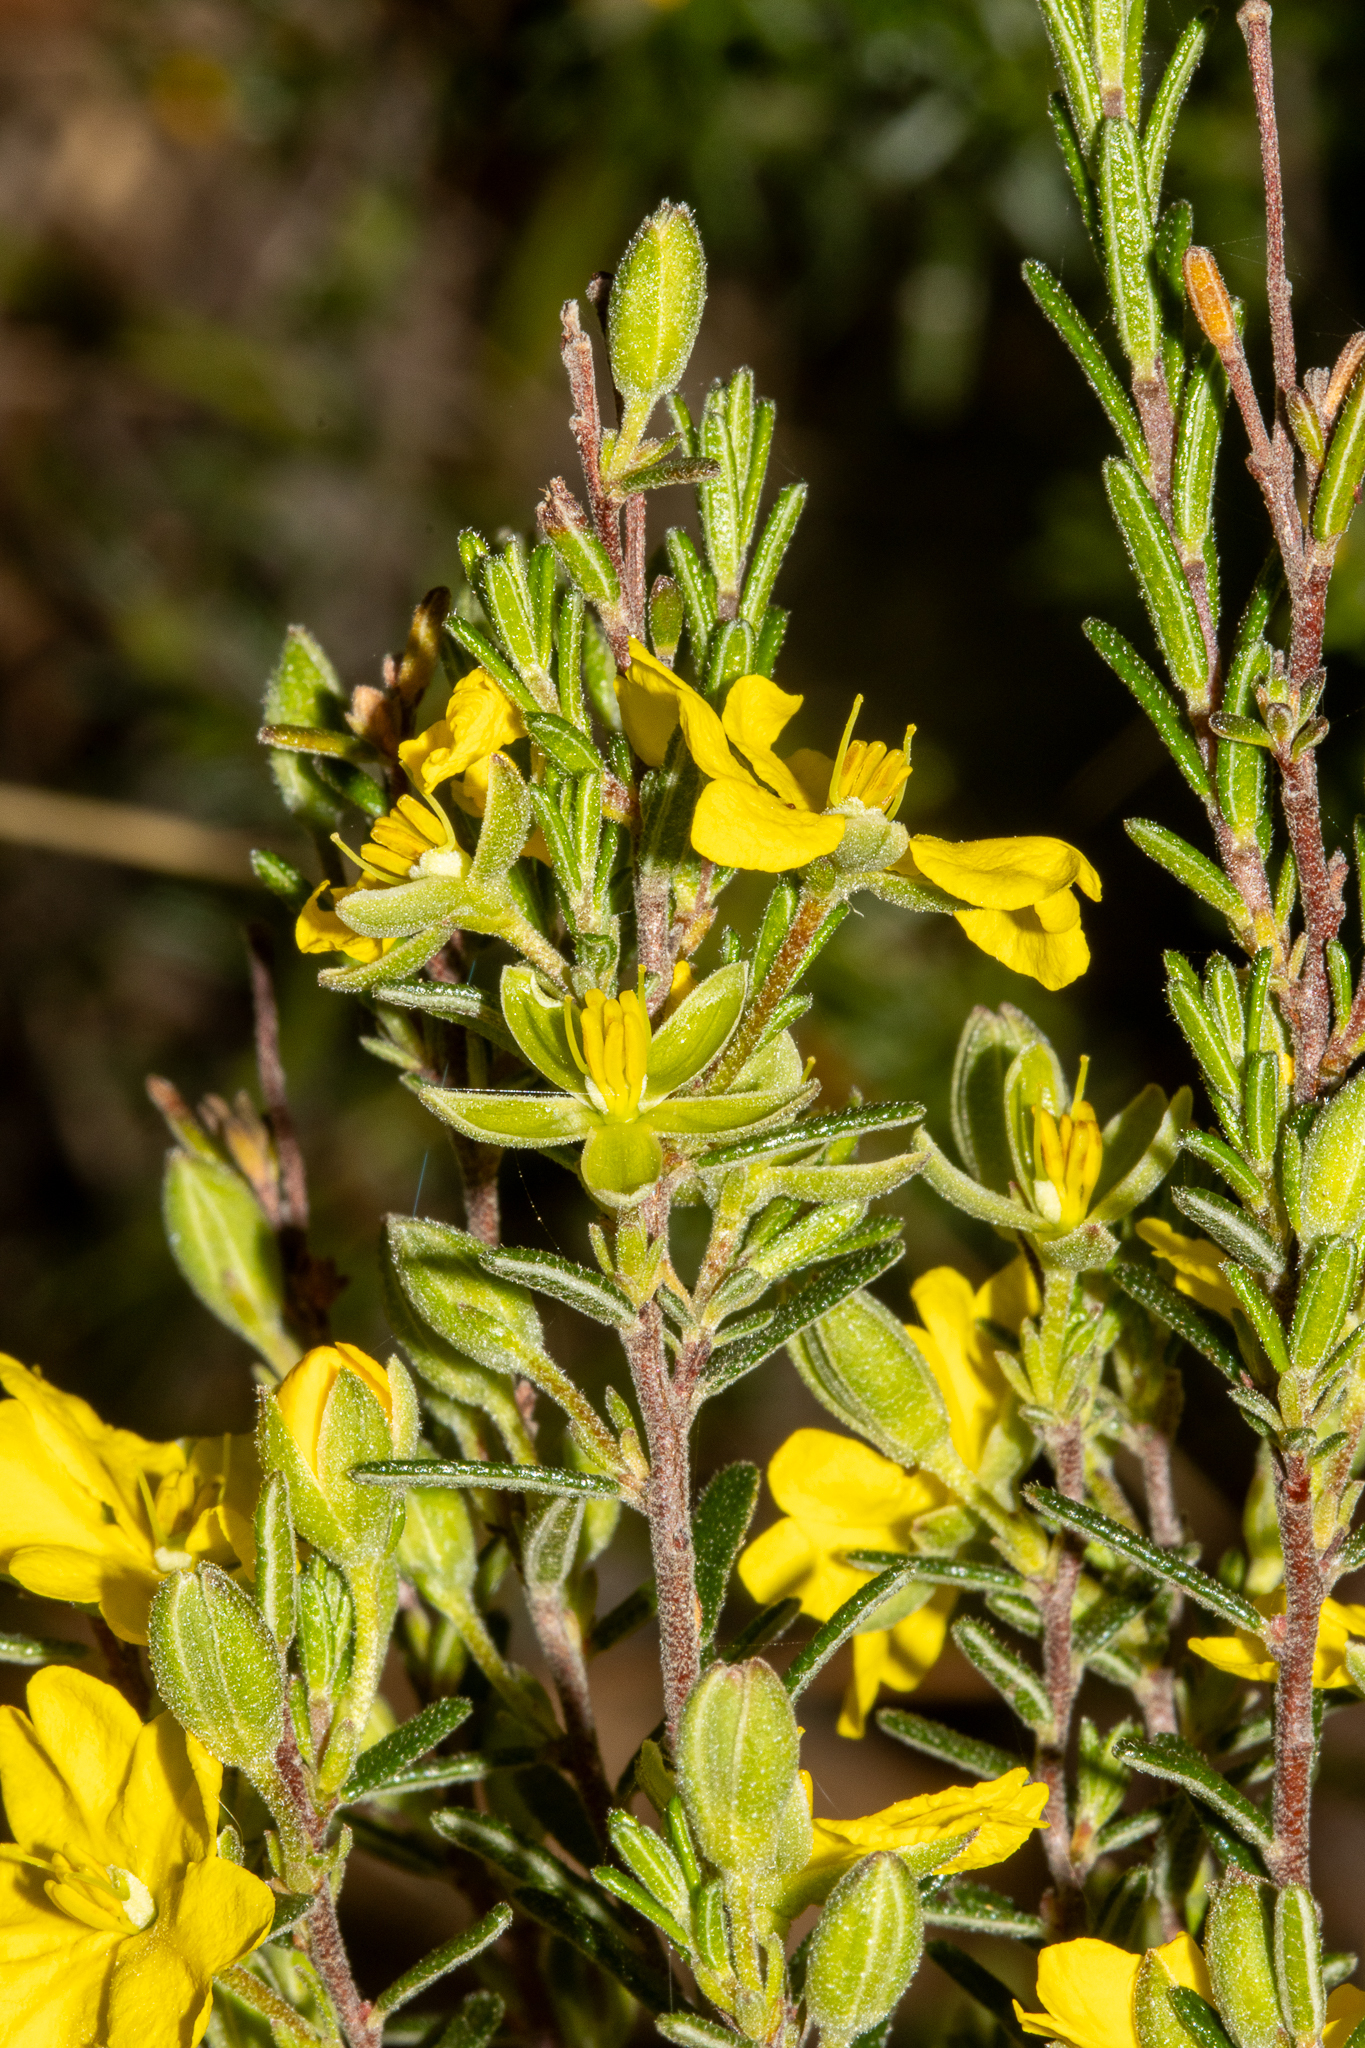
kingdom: Plantae
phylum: Tracheophyta
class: Magnoliopsida
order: Dilleniales
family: Dilleniaceae
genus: Hibbertia
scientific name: Hibbertia australis
